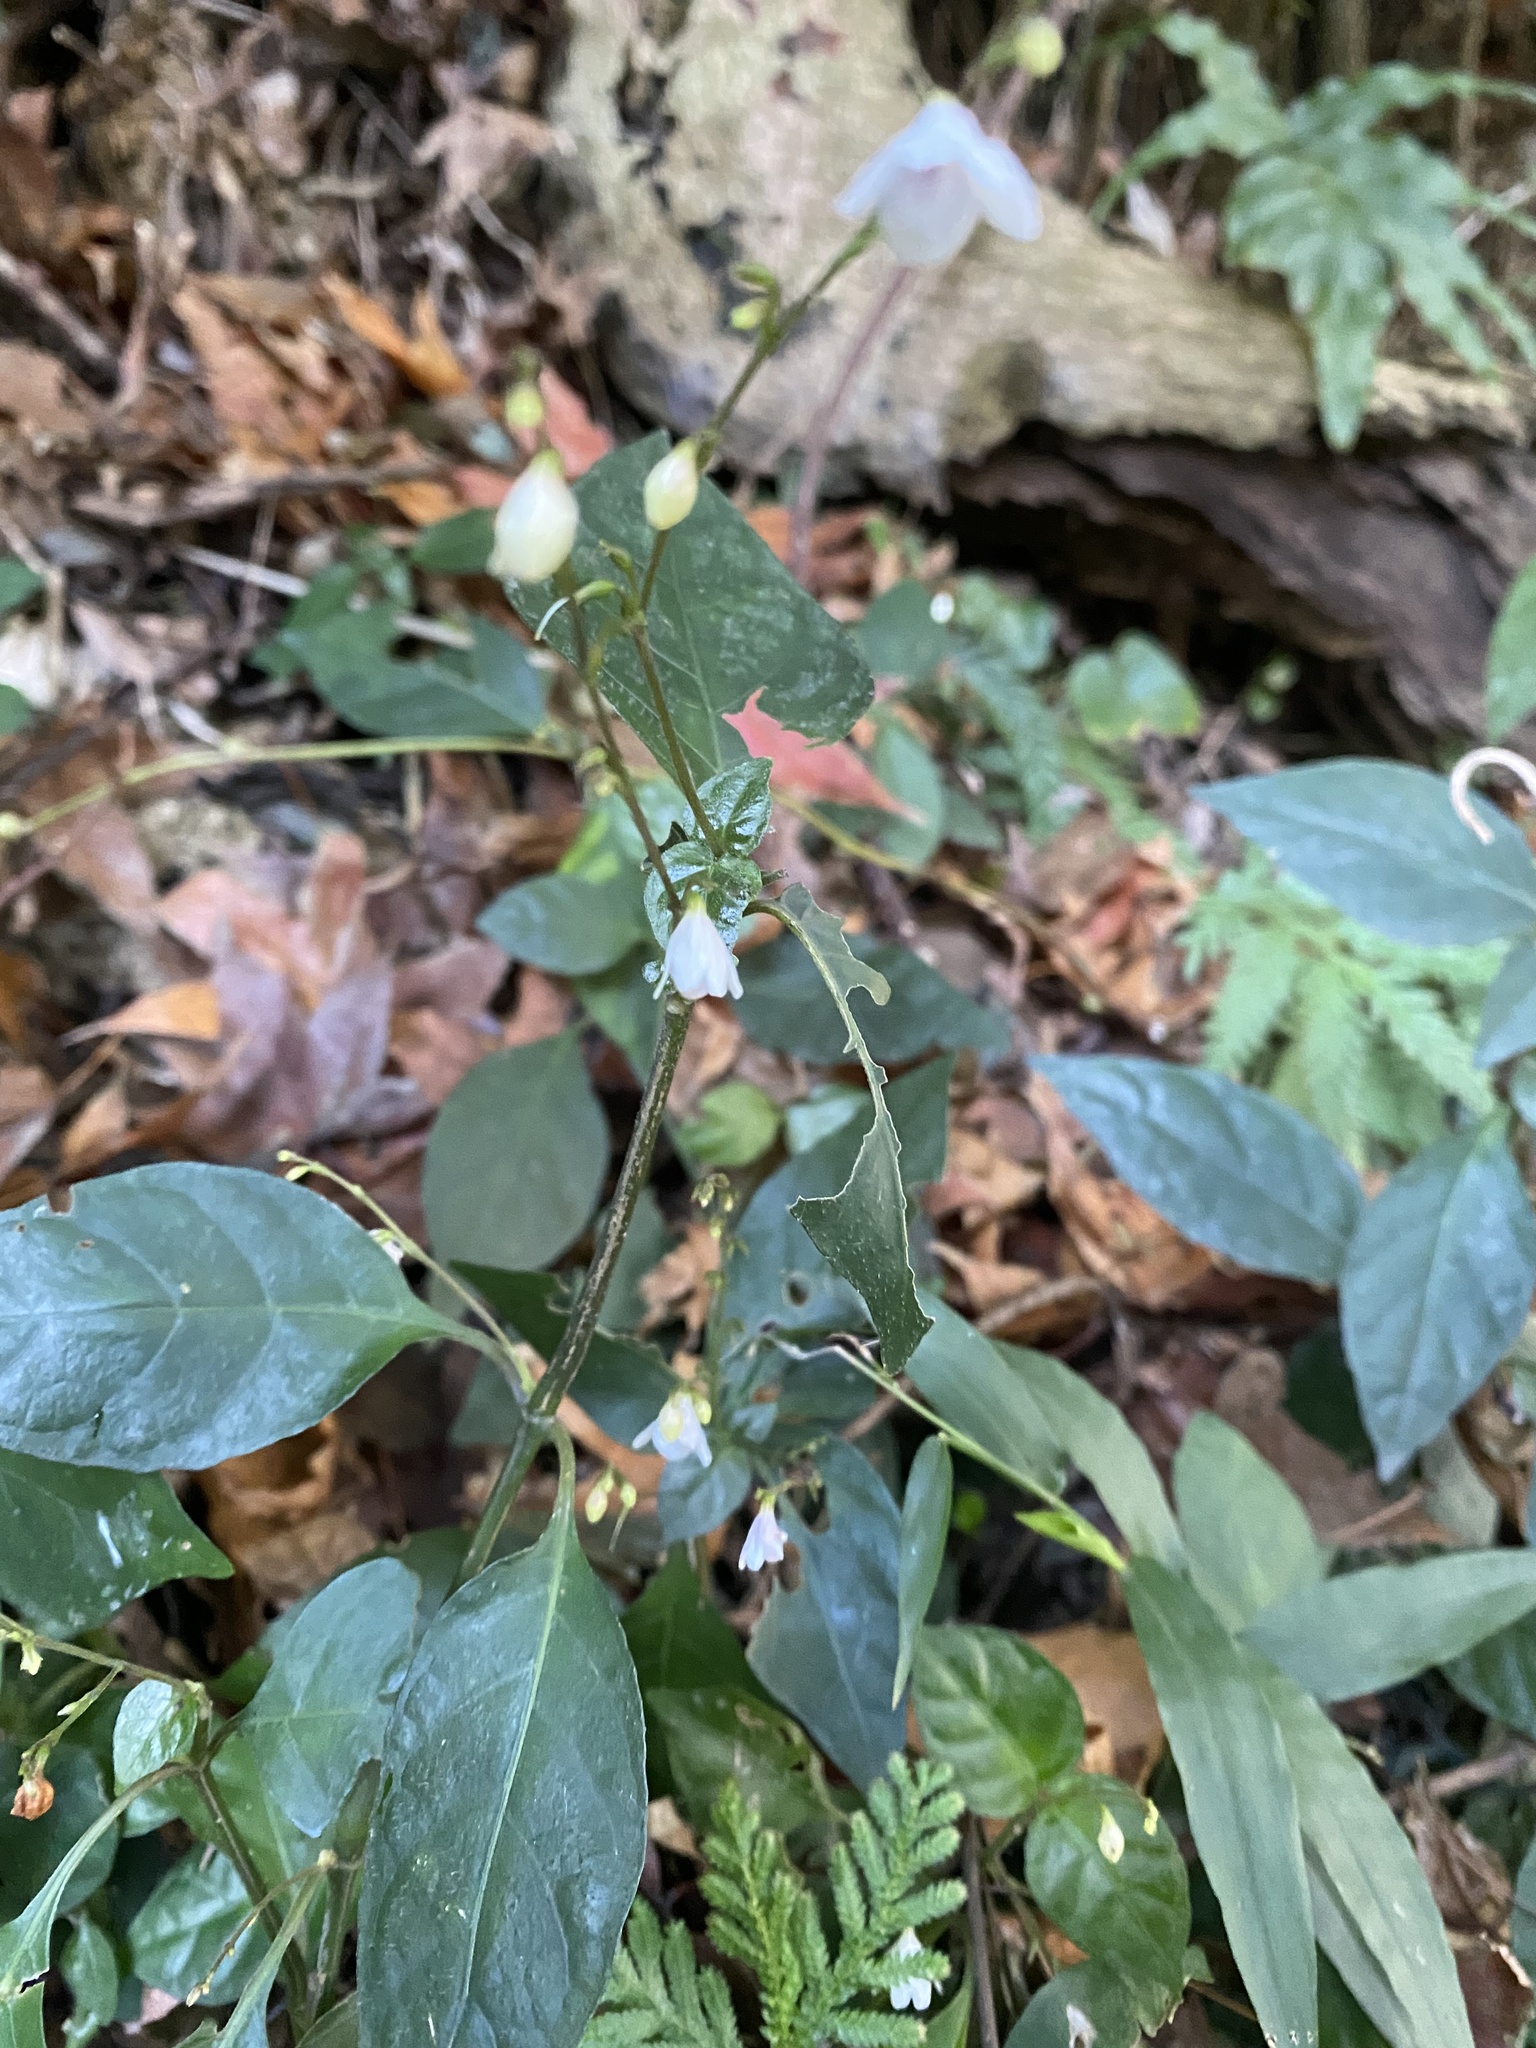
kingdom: Plantae
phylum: Tracheophyta
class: Magnoliopsida
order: Lamiales
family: Acanthaceae
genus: Codonacanthus
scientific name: Codonacanthus pauciflorus
